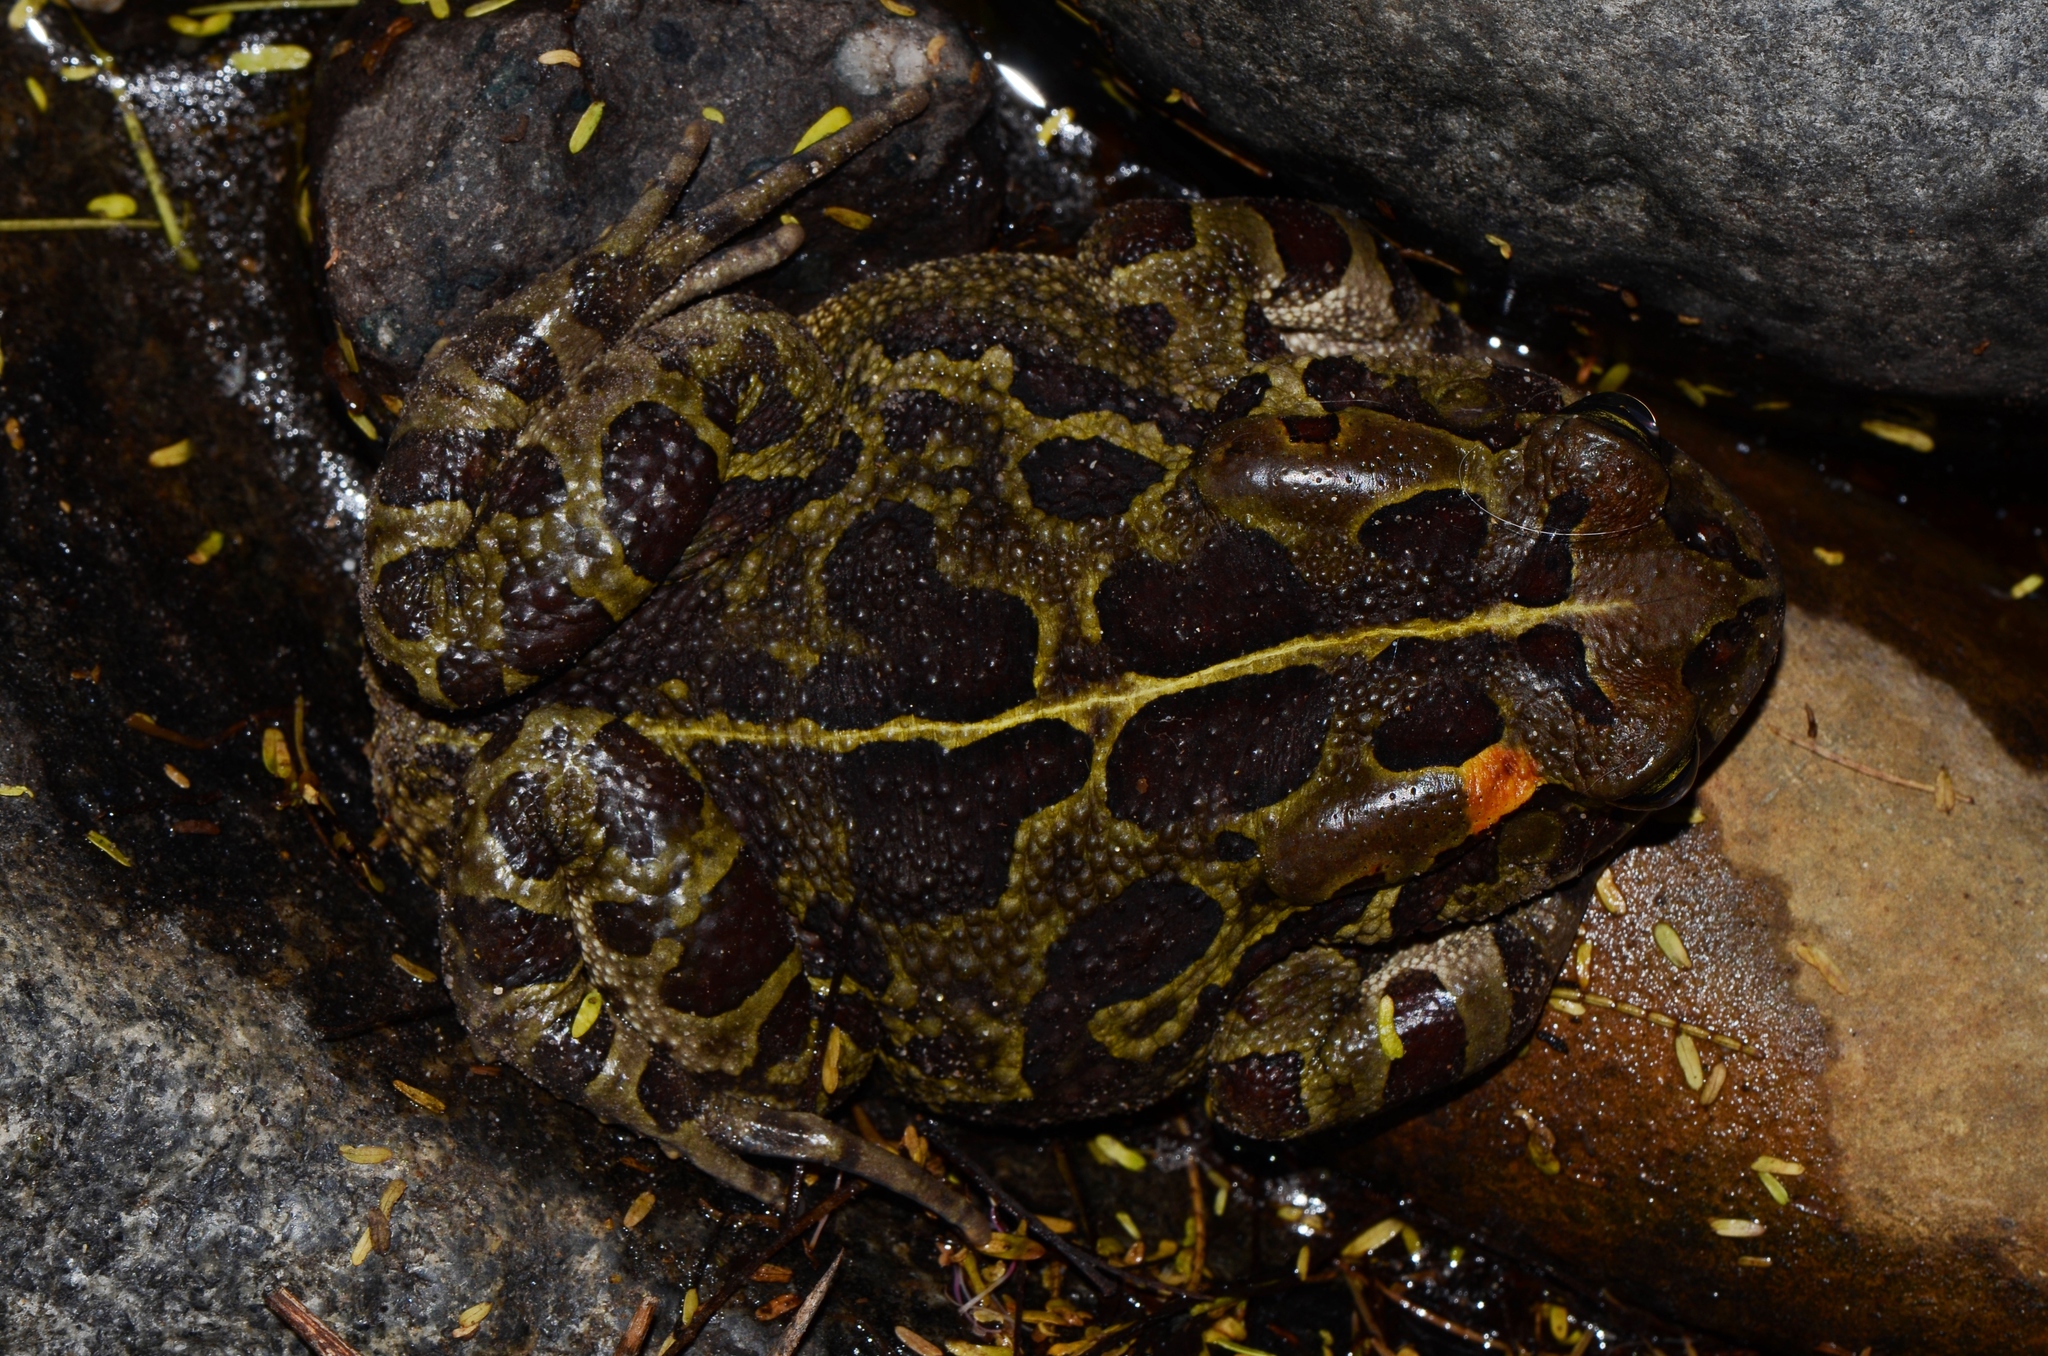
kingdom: Animalia
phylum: Chordata
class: Amphibia
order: Anura
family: Bufonidae
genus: Sclerophrys
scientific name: Sclerophrys pantherina
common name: Panther toad
